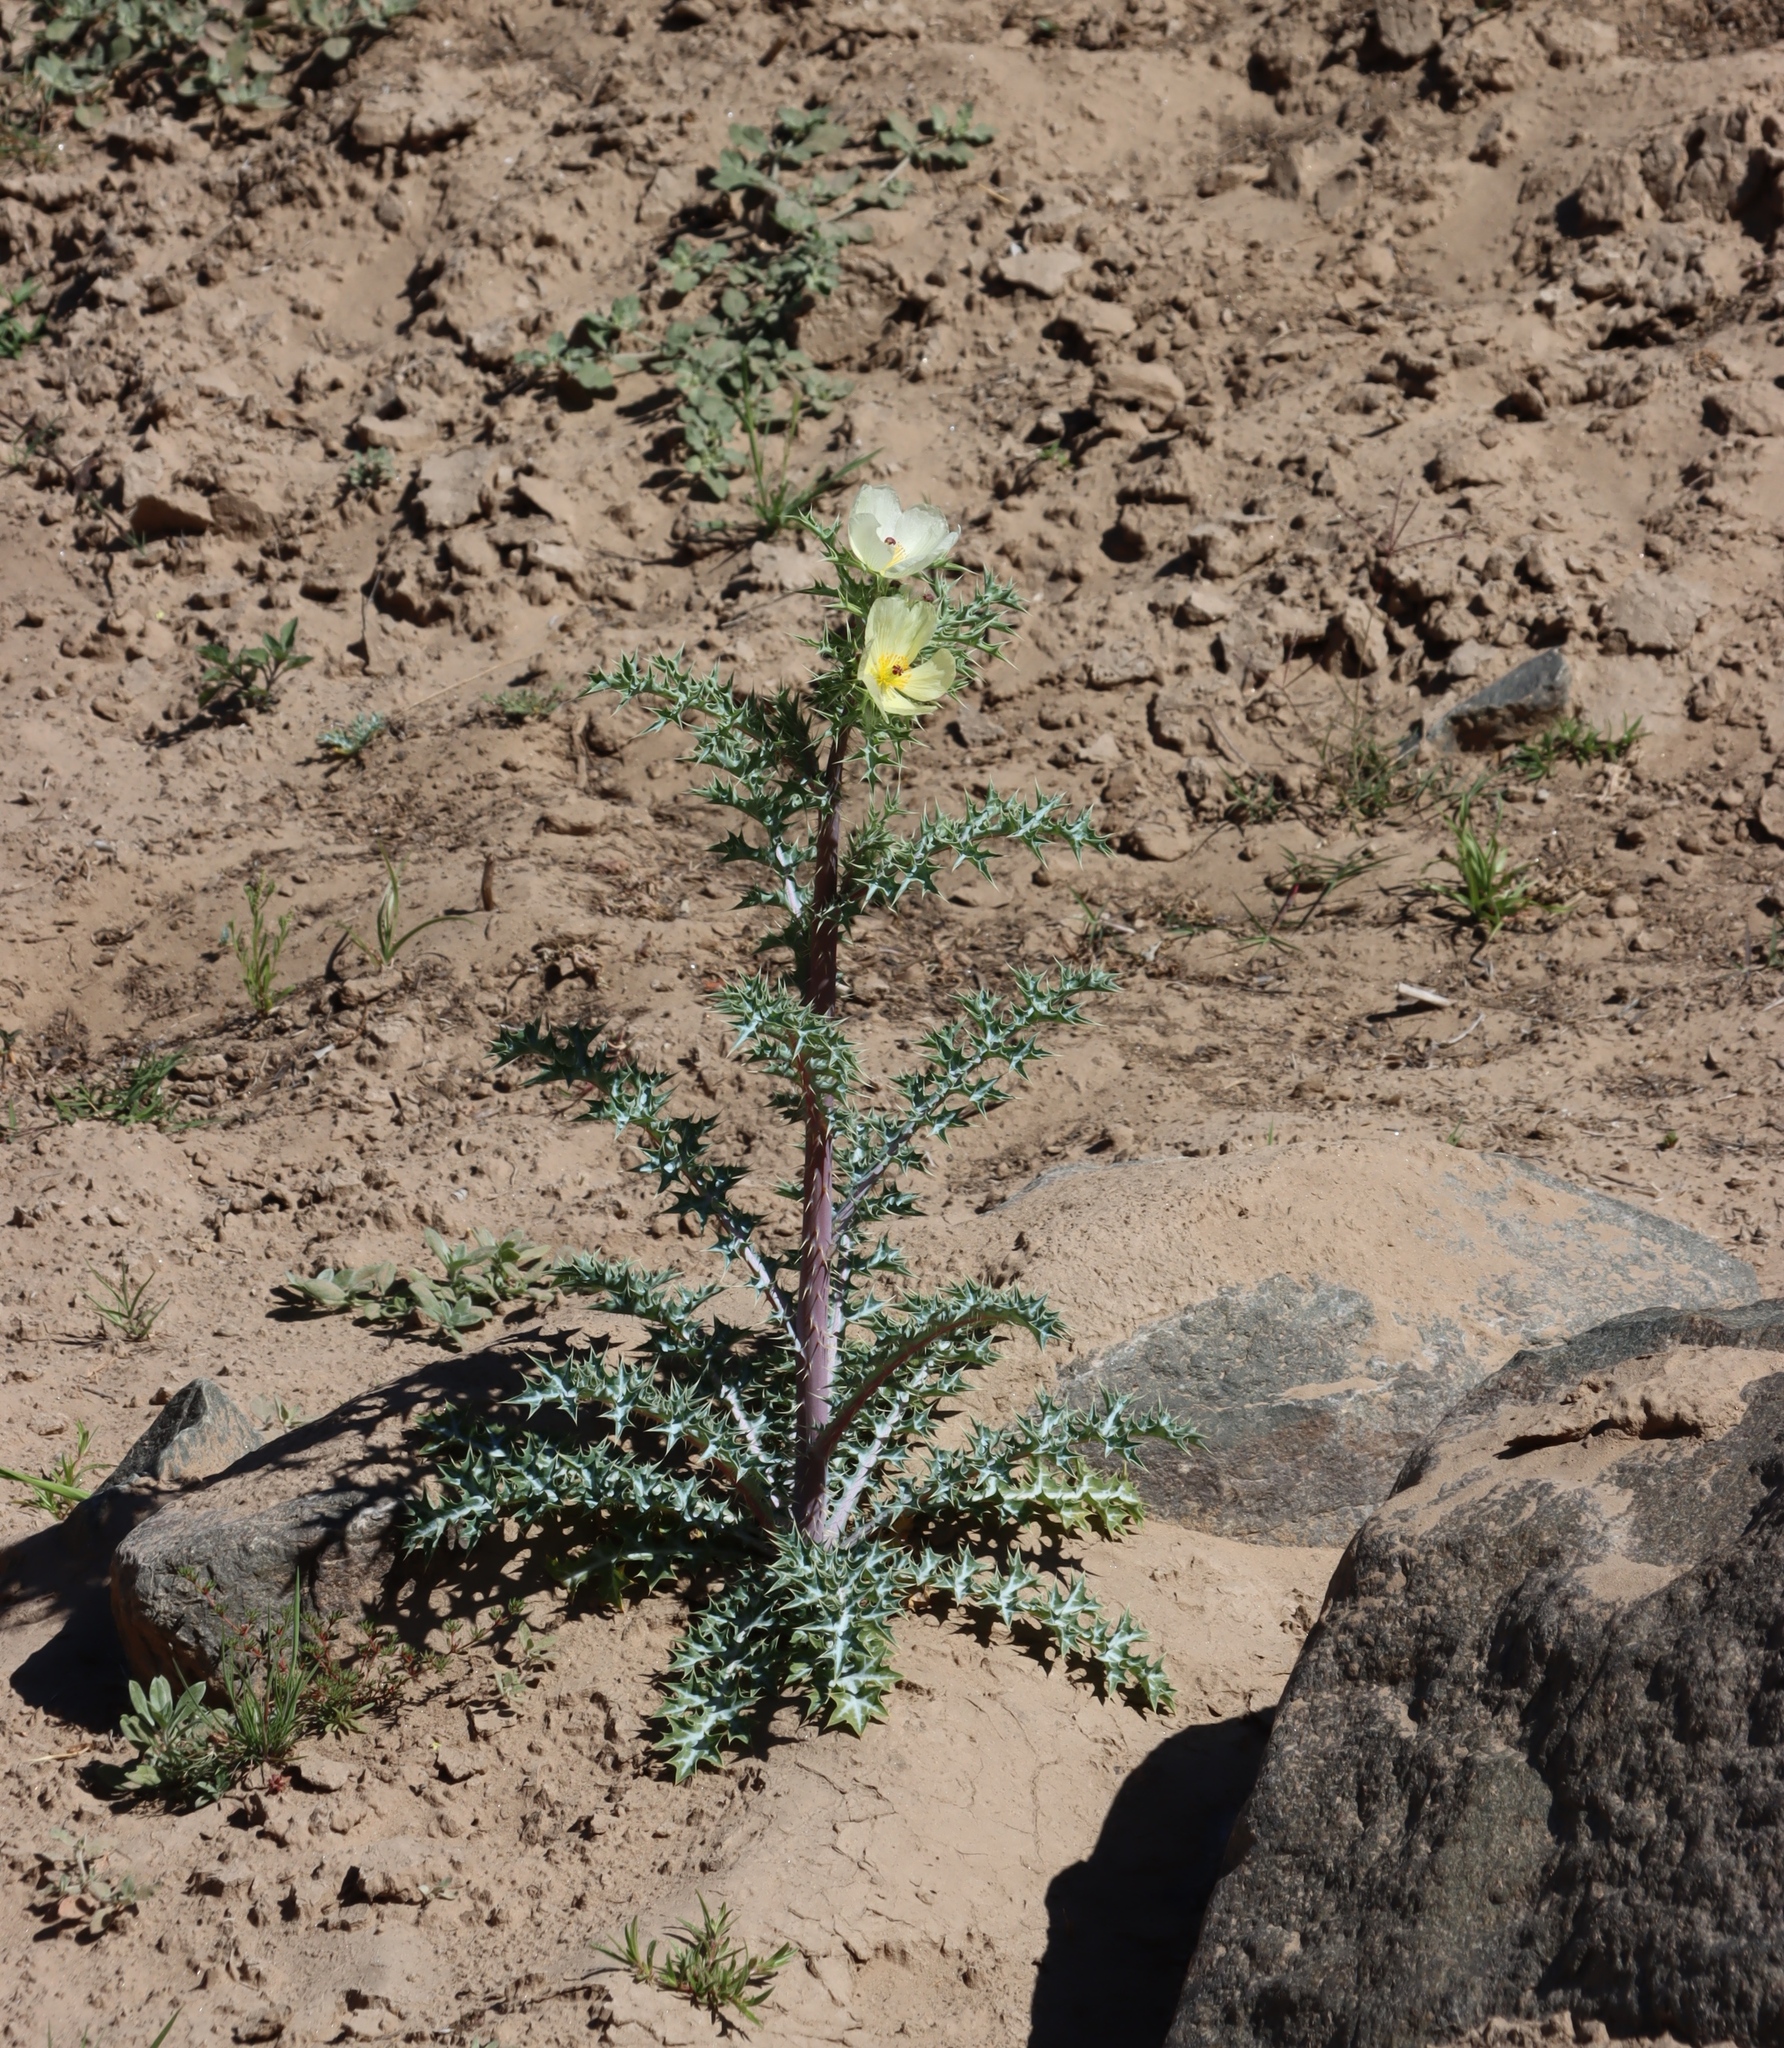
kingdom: Plantae
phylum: Tracheophyta
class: Magnoliopsida
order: Ranunculales
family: Papaveraceae
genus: Argemone
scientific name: Argemone ochroleuca
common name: White-flower mexican-poppy
